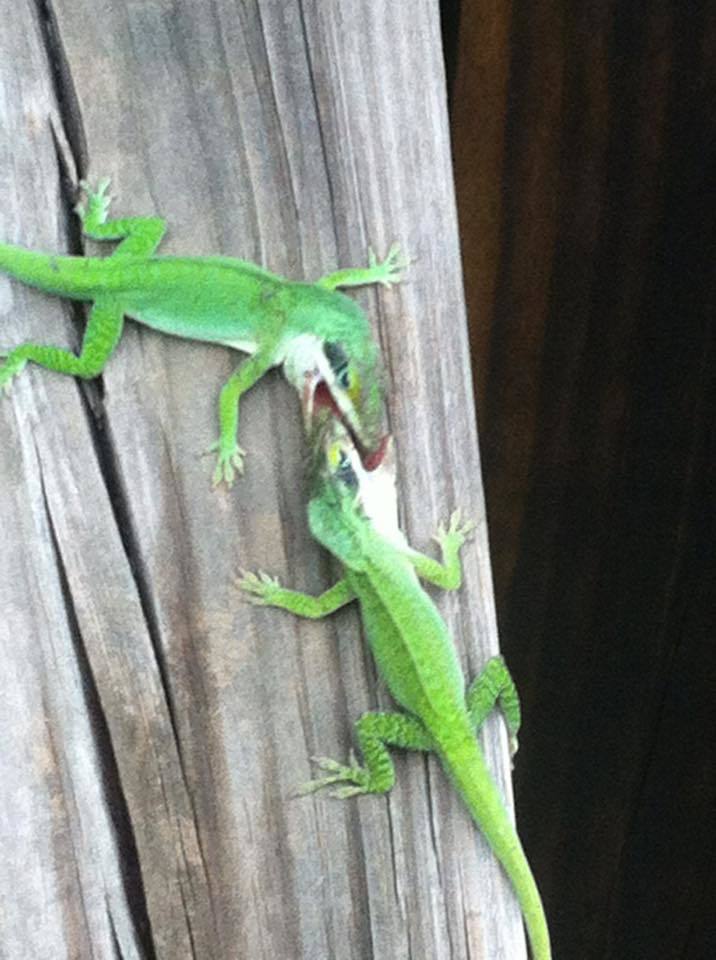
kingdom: Animalia
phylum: Chordata
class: Squamata
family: Dactyloidae
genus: Anolis
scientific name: Anolis carolinensis
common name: Green anole
